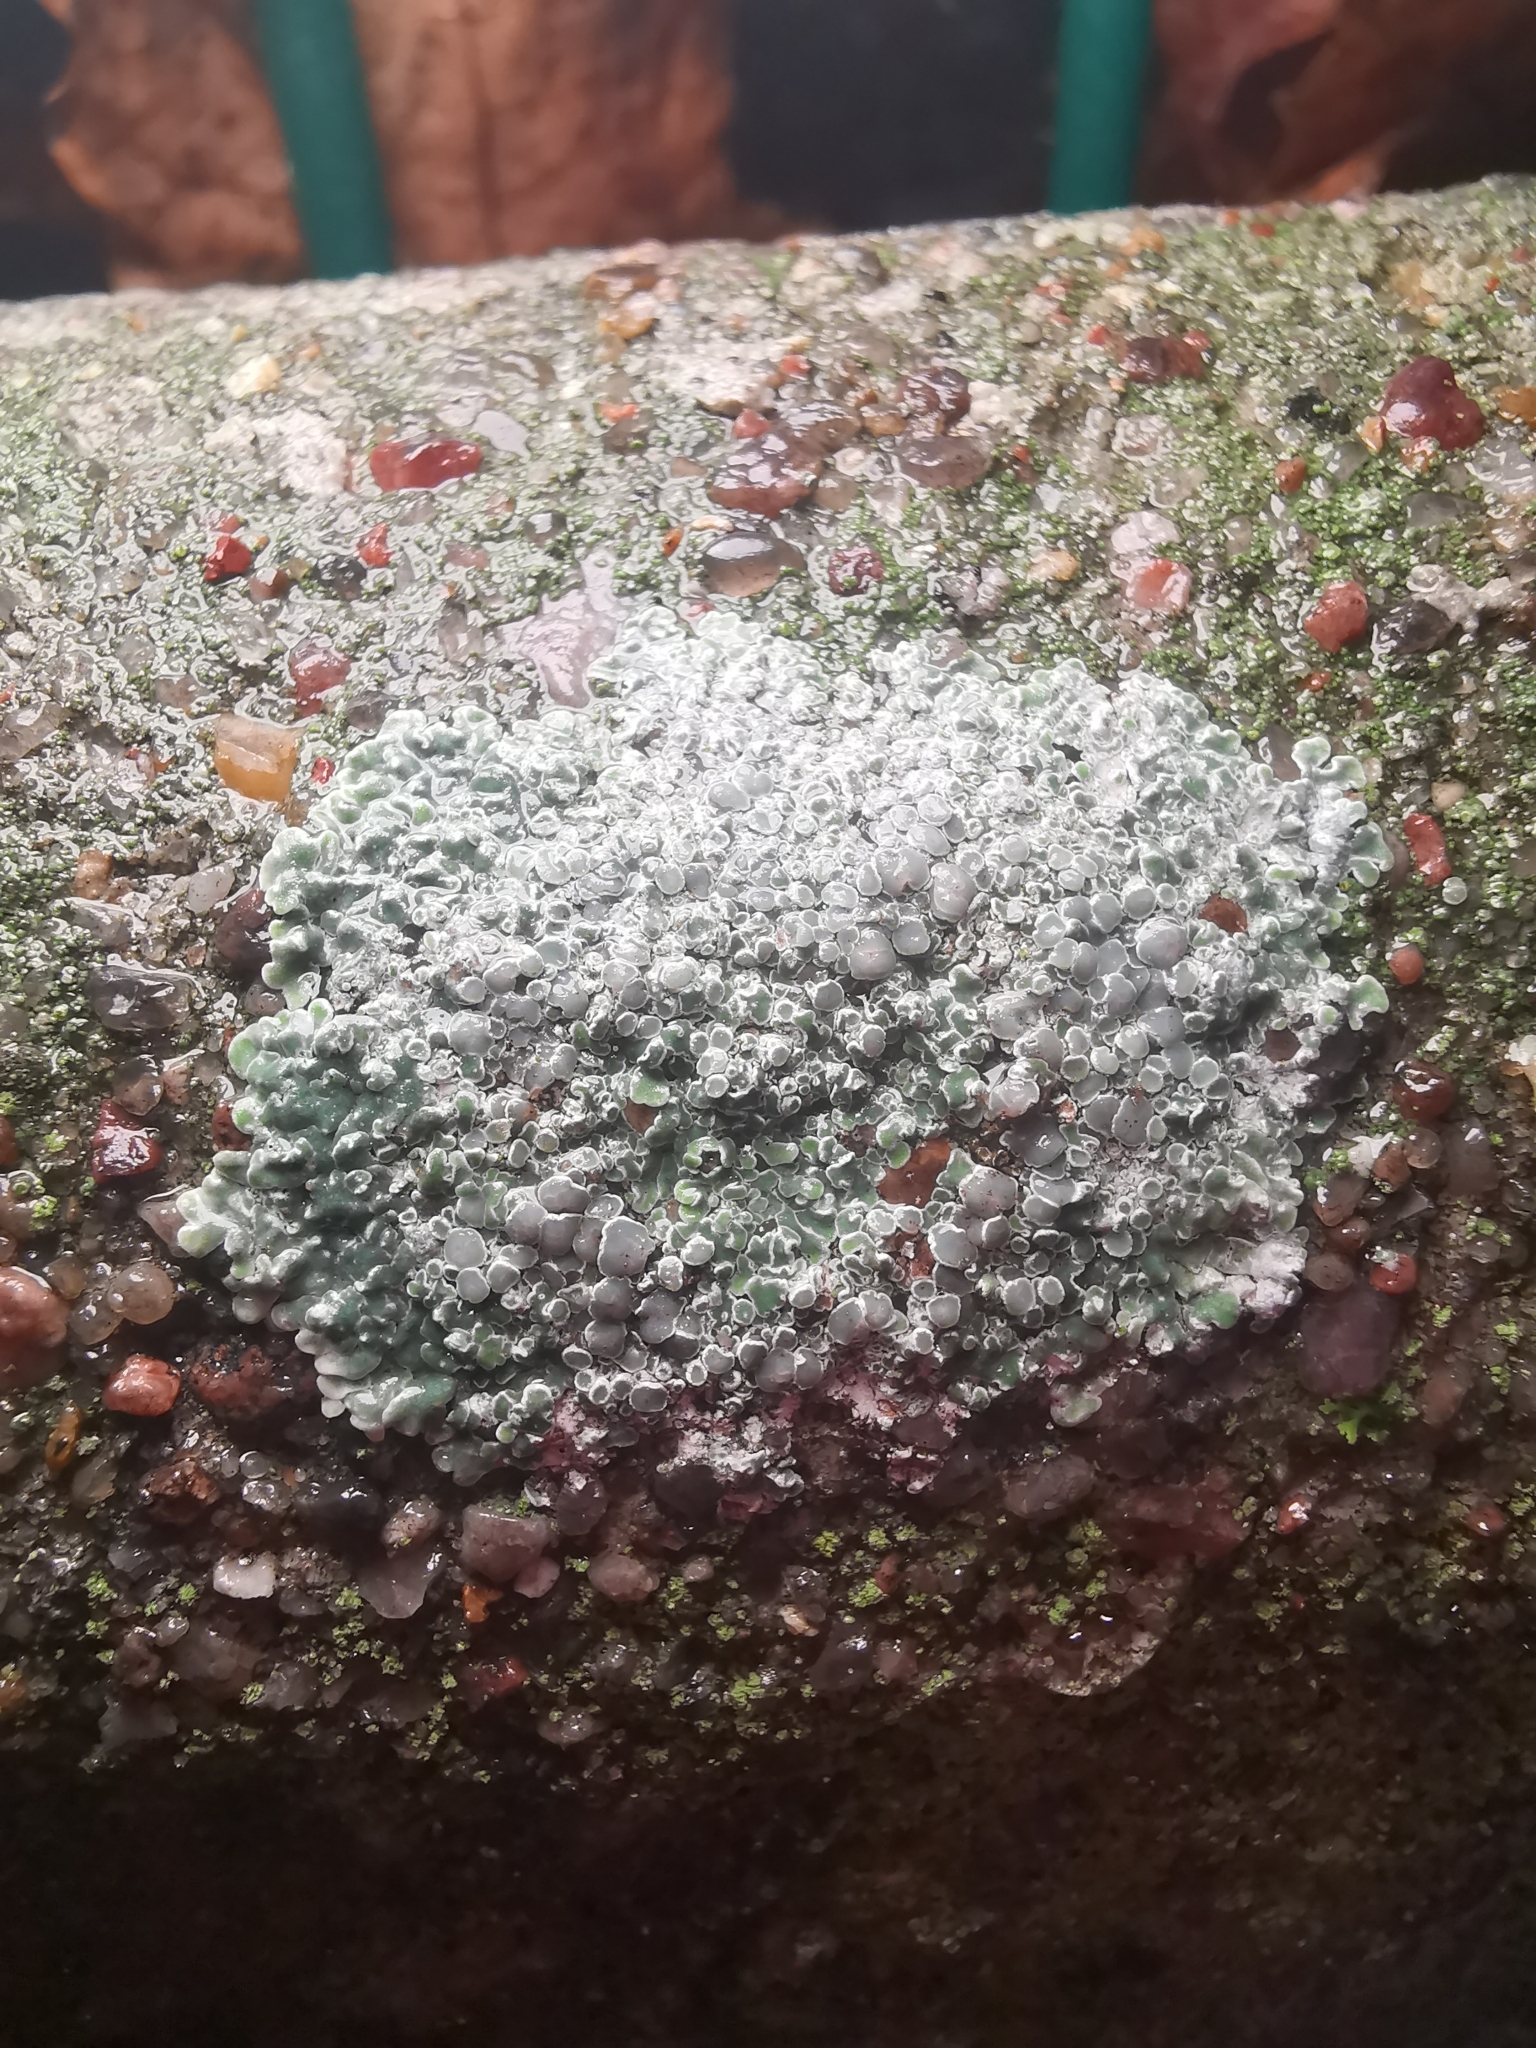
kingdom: Fungi
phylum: Ascomycota
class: Lecanoromycetes
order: Lecanorales
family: Lecanoraceae
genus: Protoparmeliopsis
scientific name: Protoparmeliopsis muralis
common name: Stonewall rim lichen
